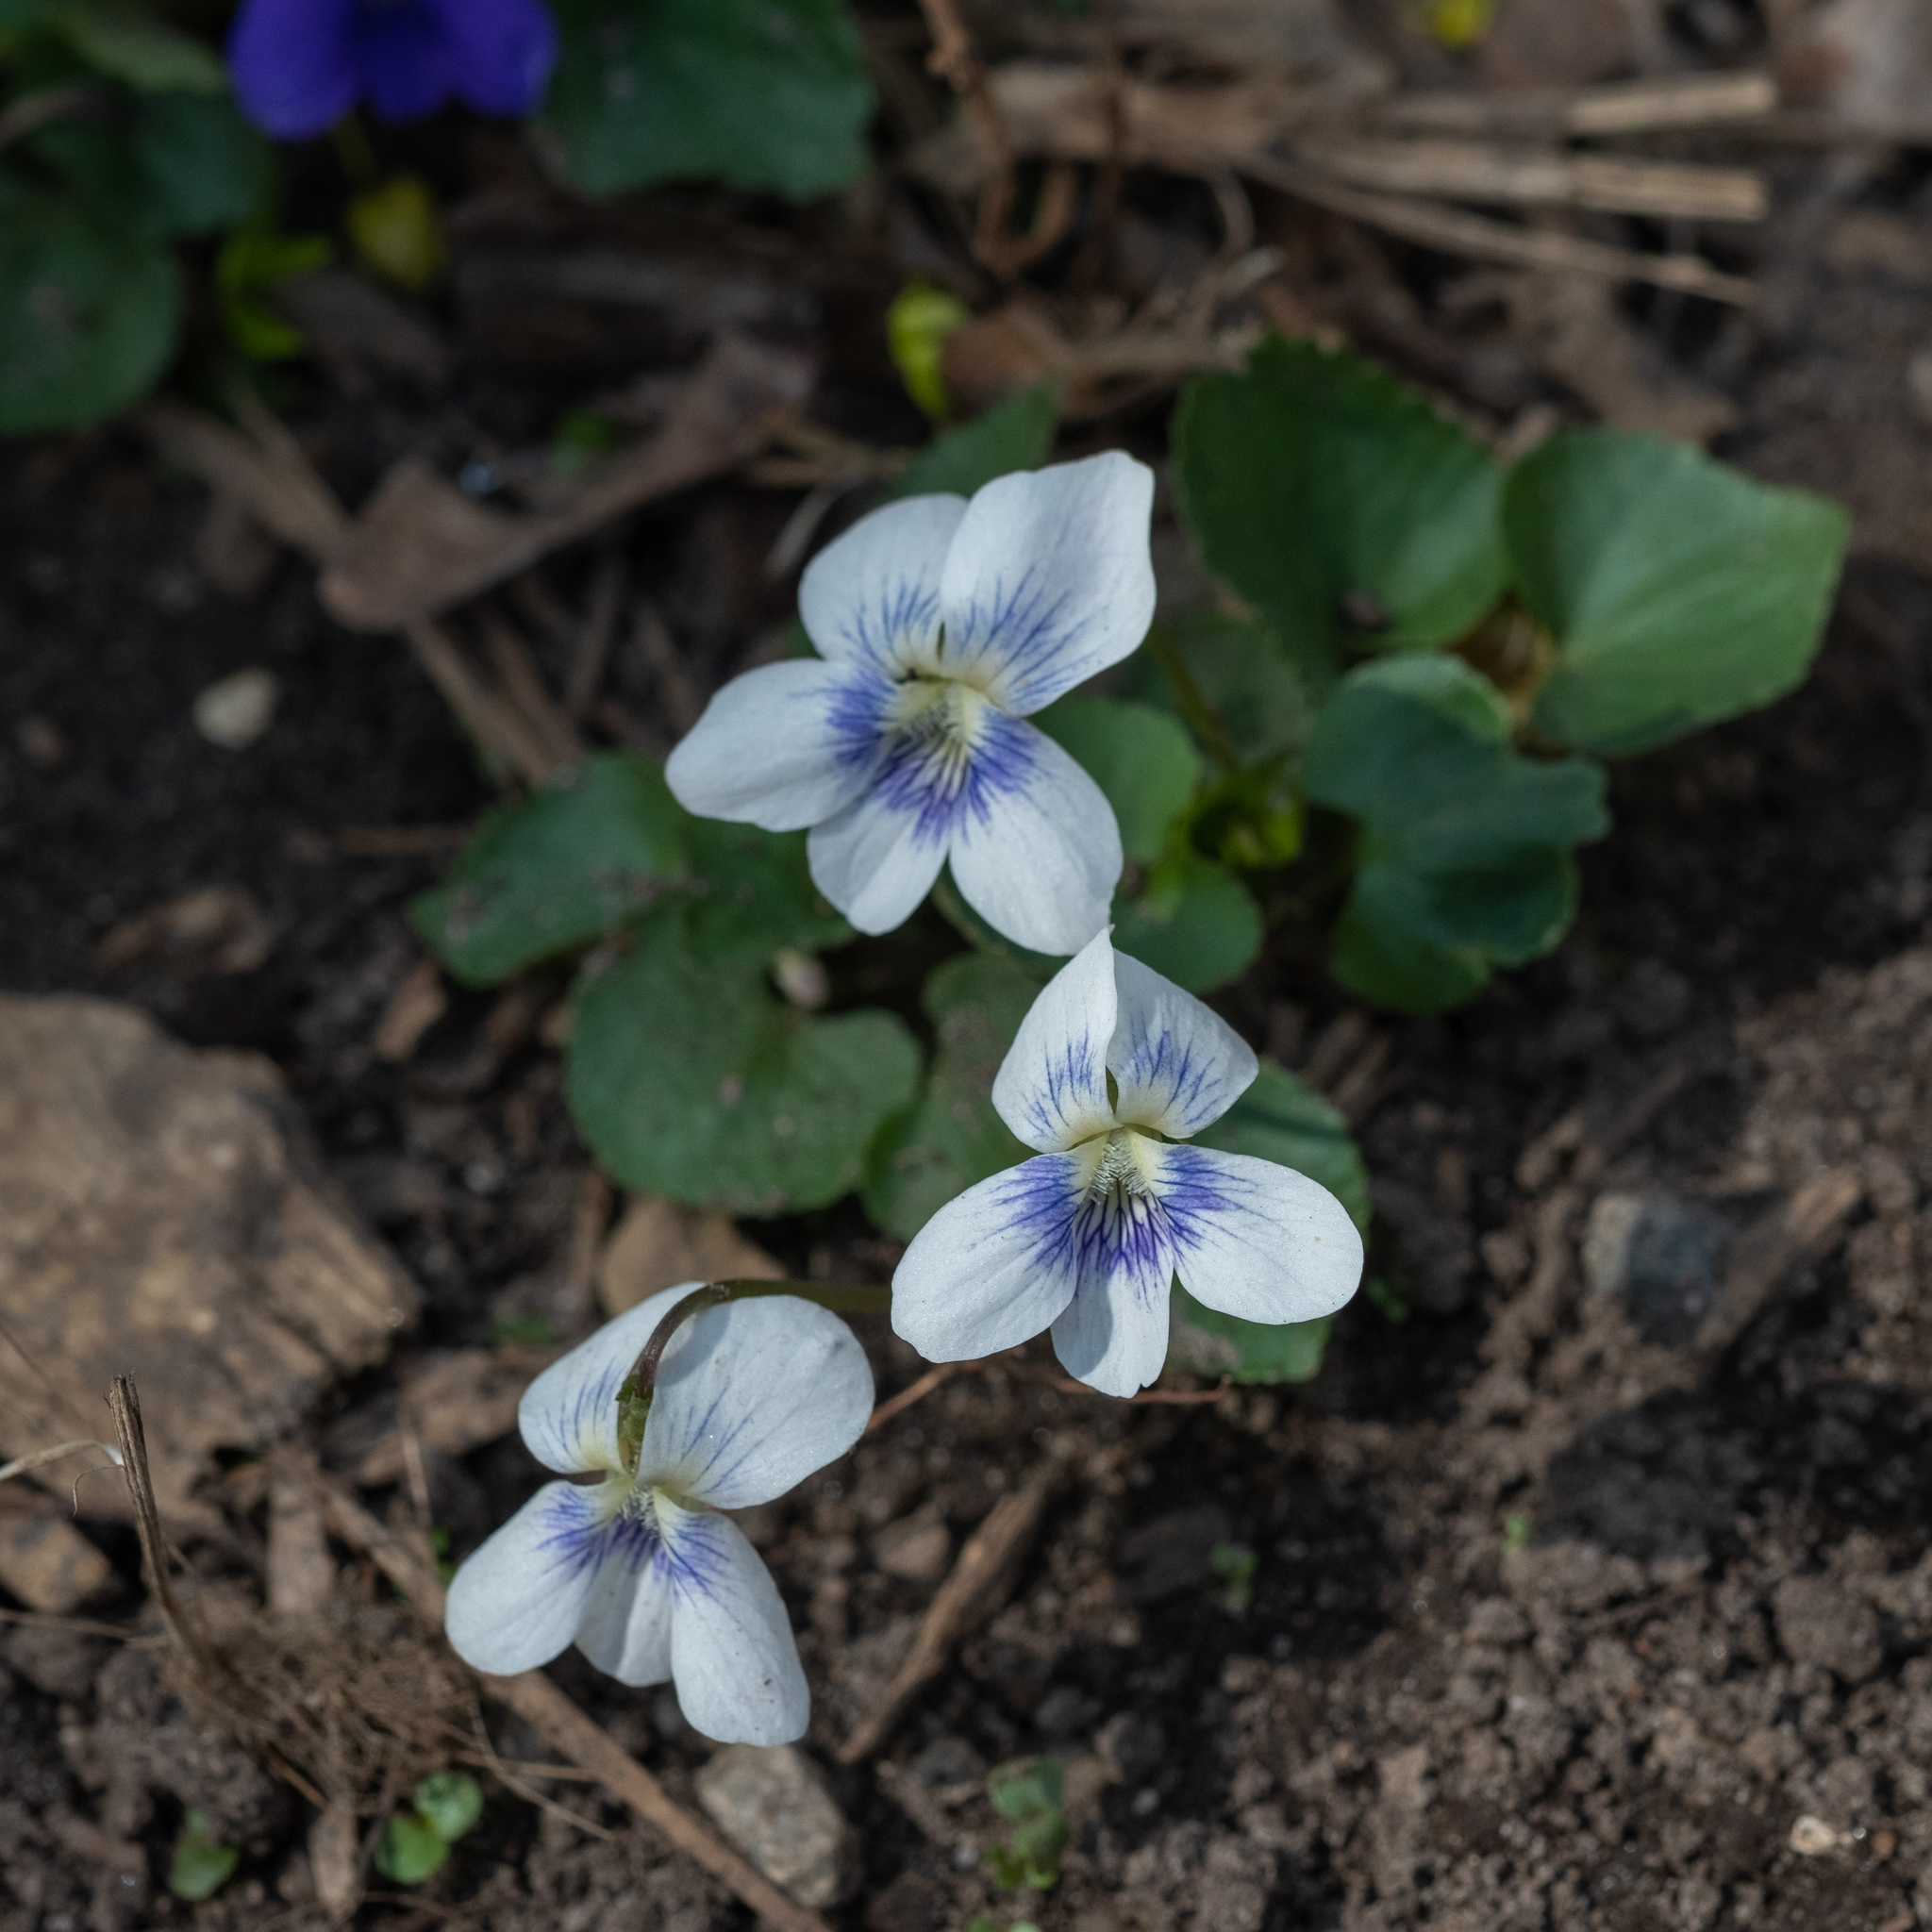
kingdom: Plantae
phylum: Tracheophyta
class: Magnoliopsida
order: Malpighiales
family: Violaceae
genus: Viola
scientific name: Viola sororia
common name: Dooryard violet
